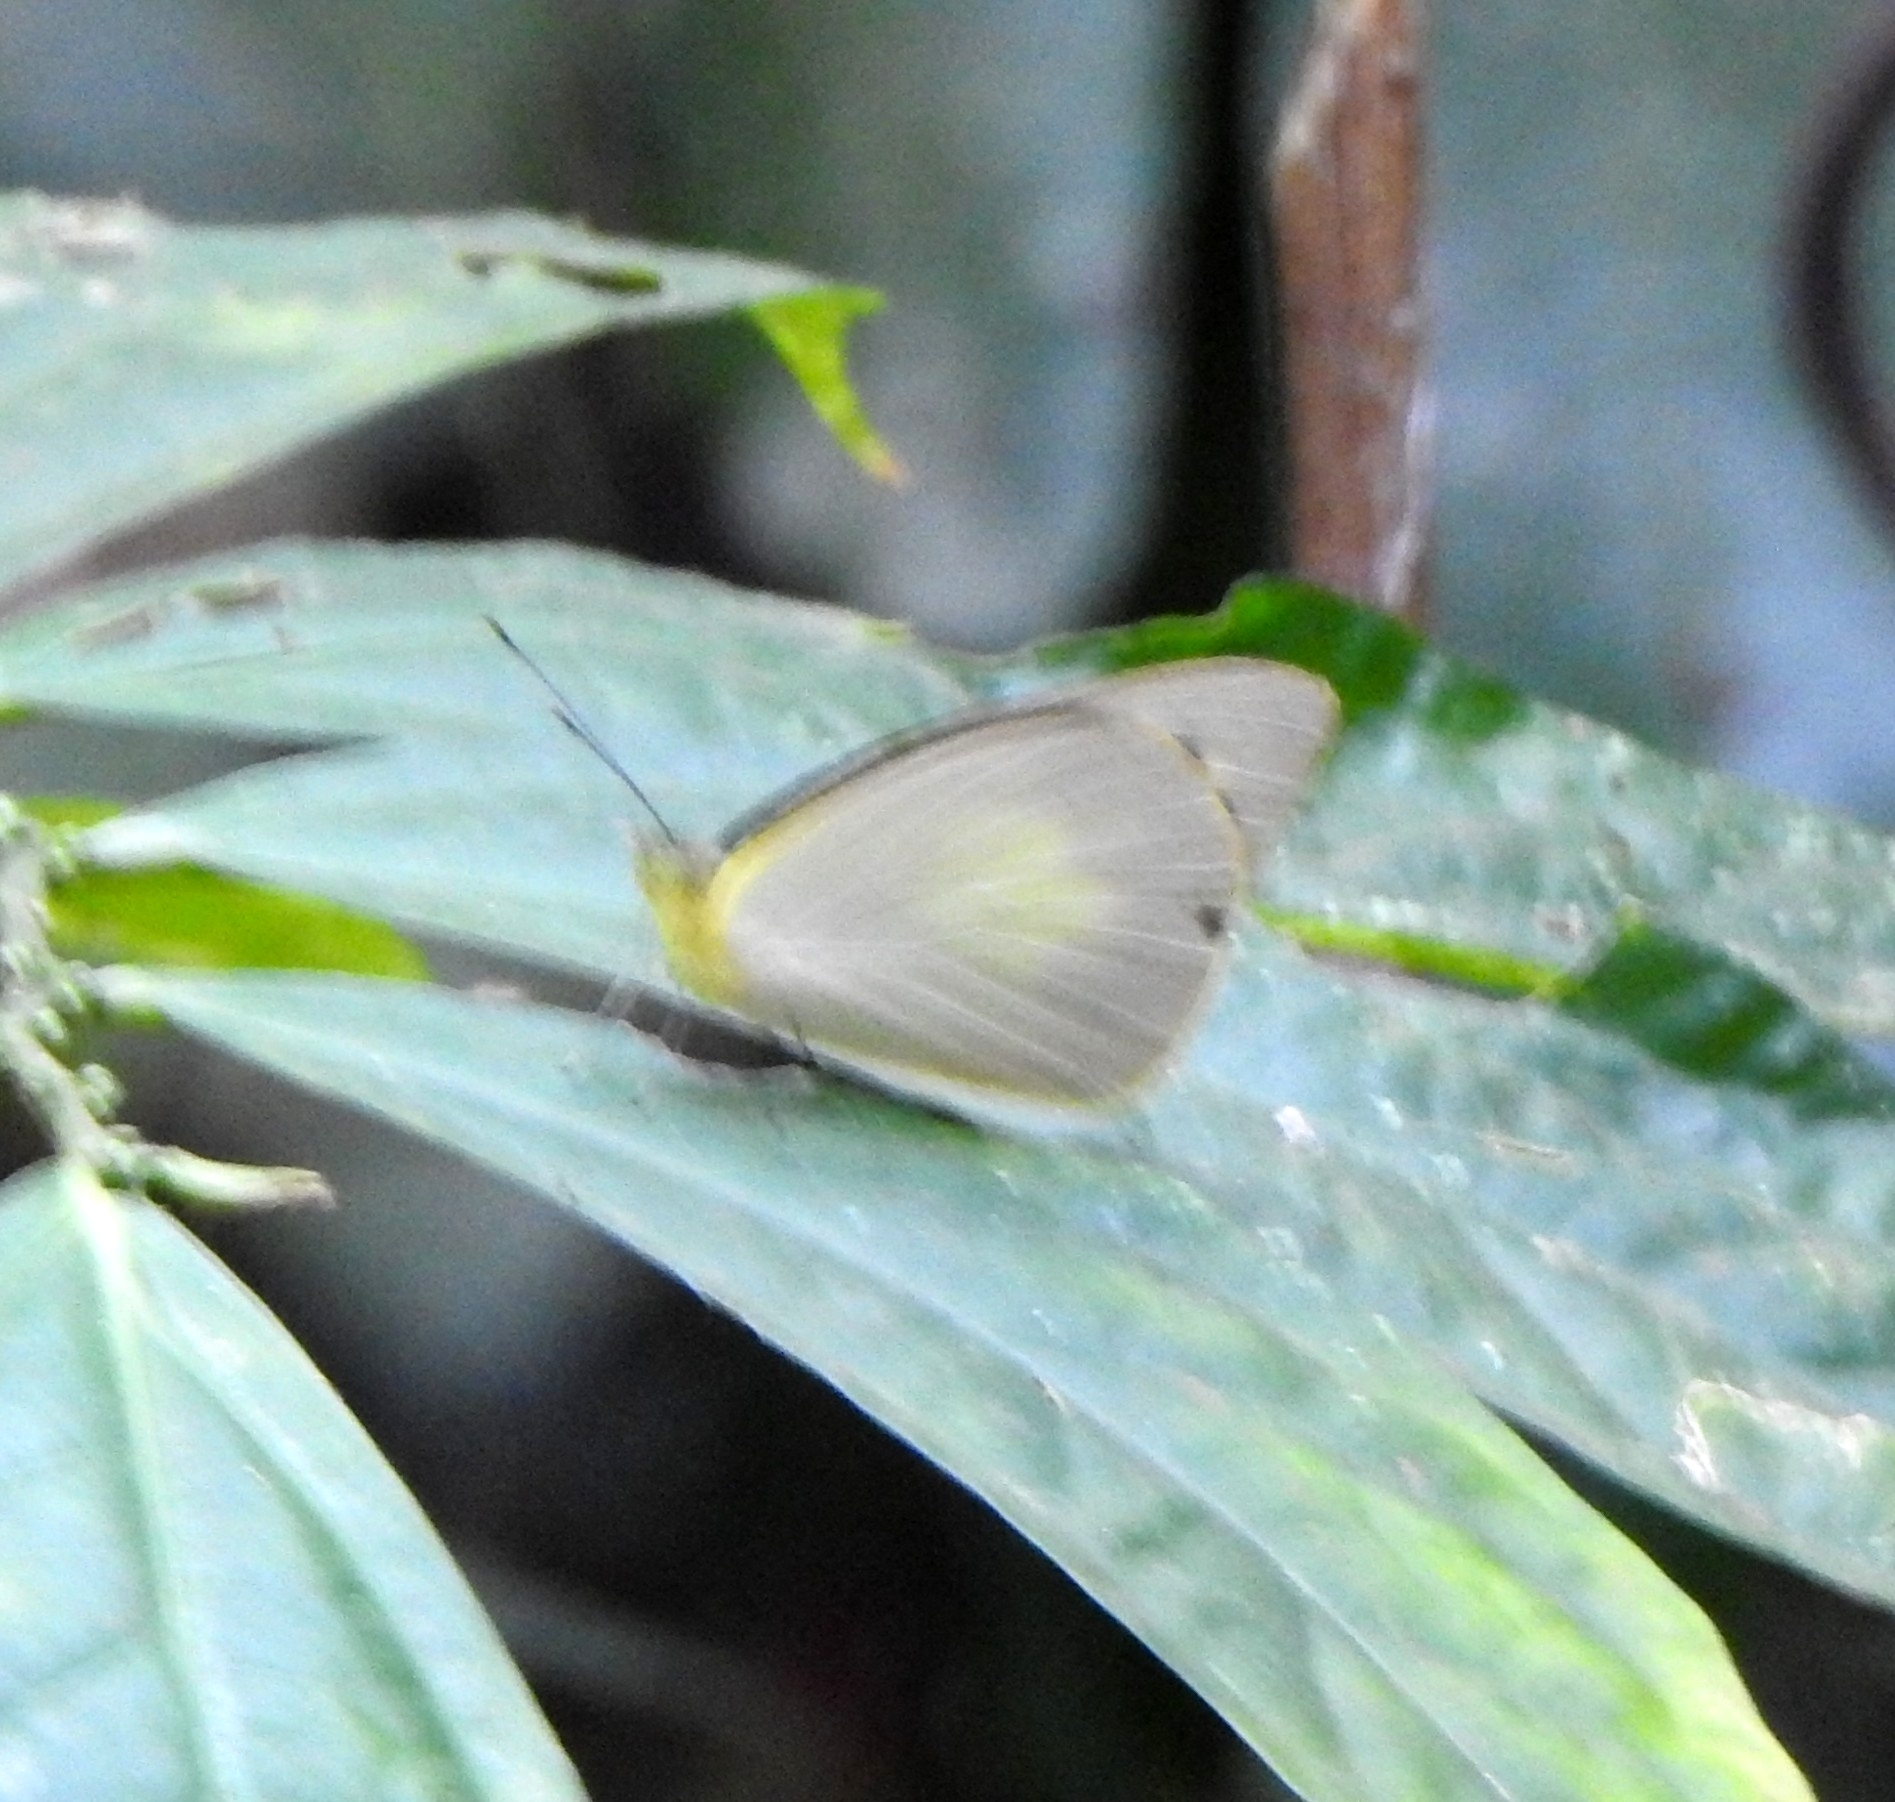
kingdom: Animalia
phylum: Arthropoda
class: Insecta
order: Lepidoptera
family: Pieridae
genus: Appias
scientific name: Appias albina
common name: Common albatross
